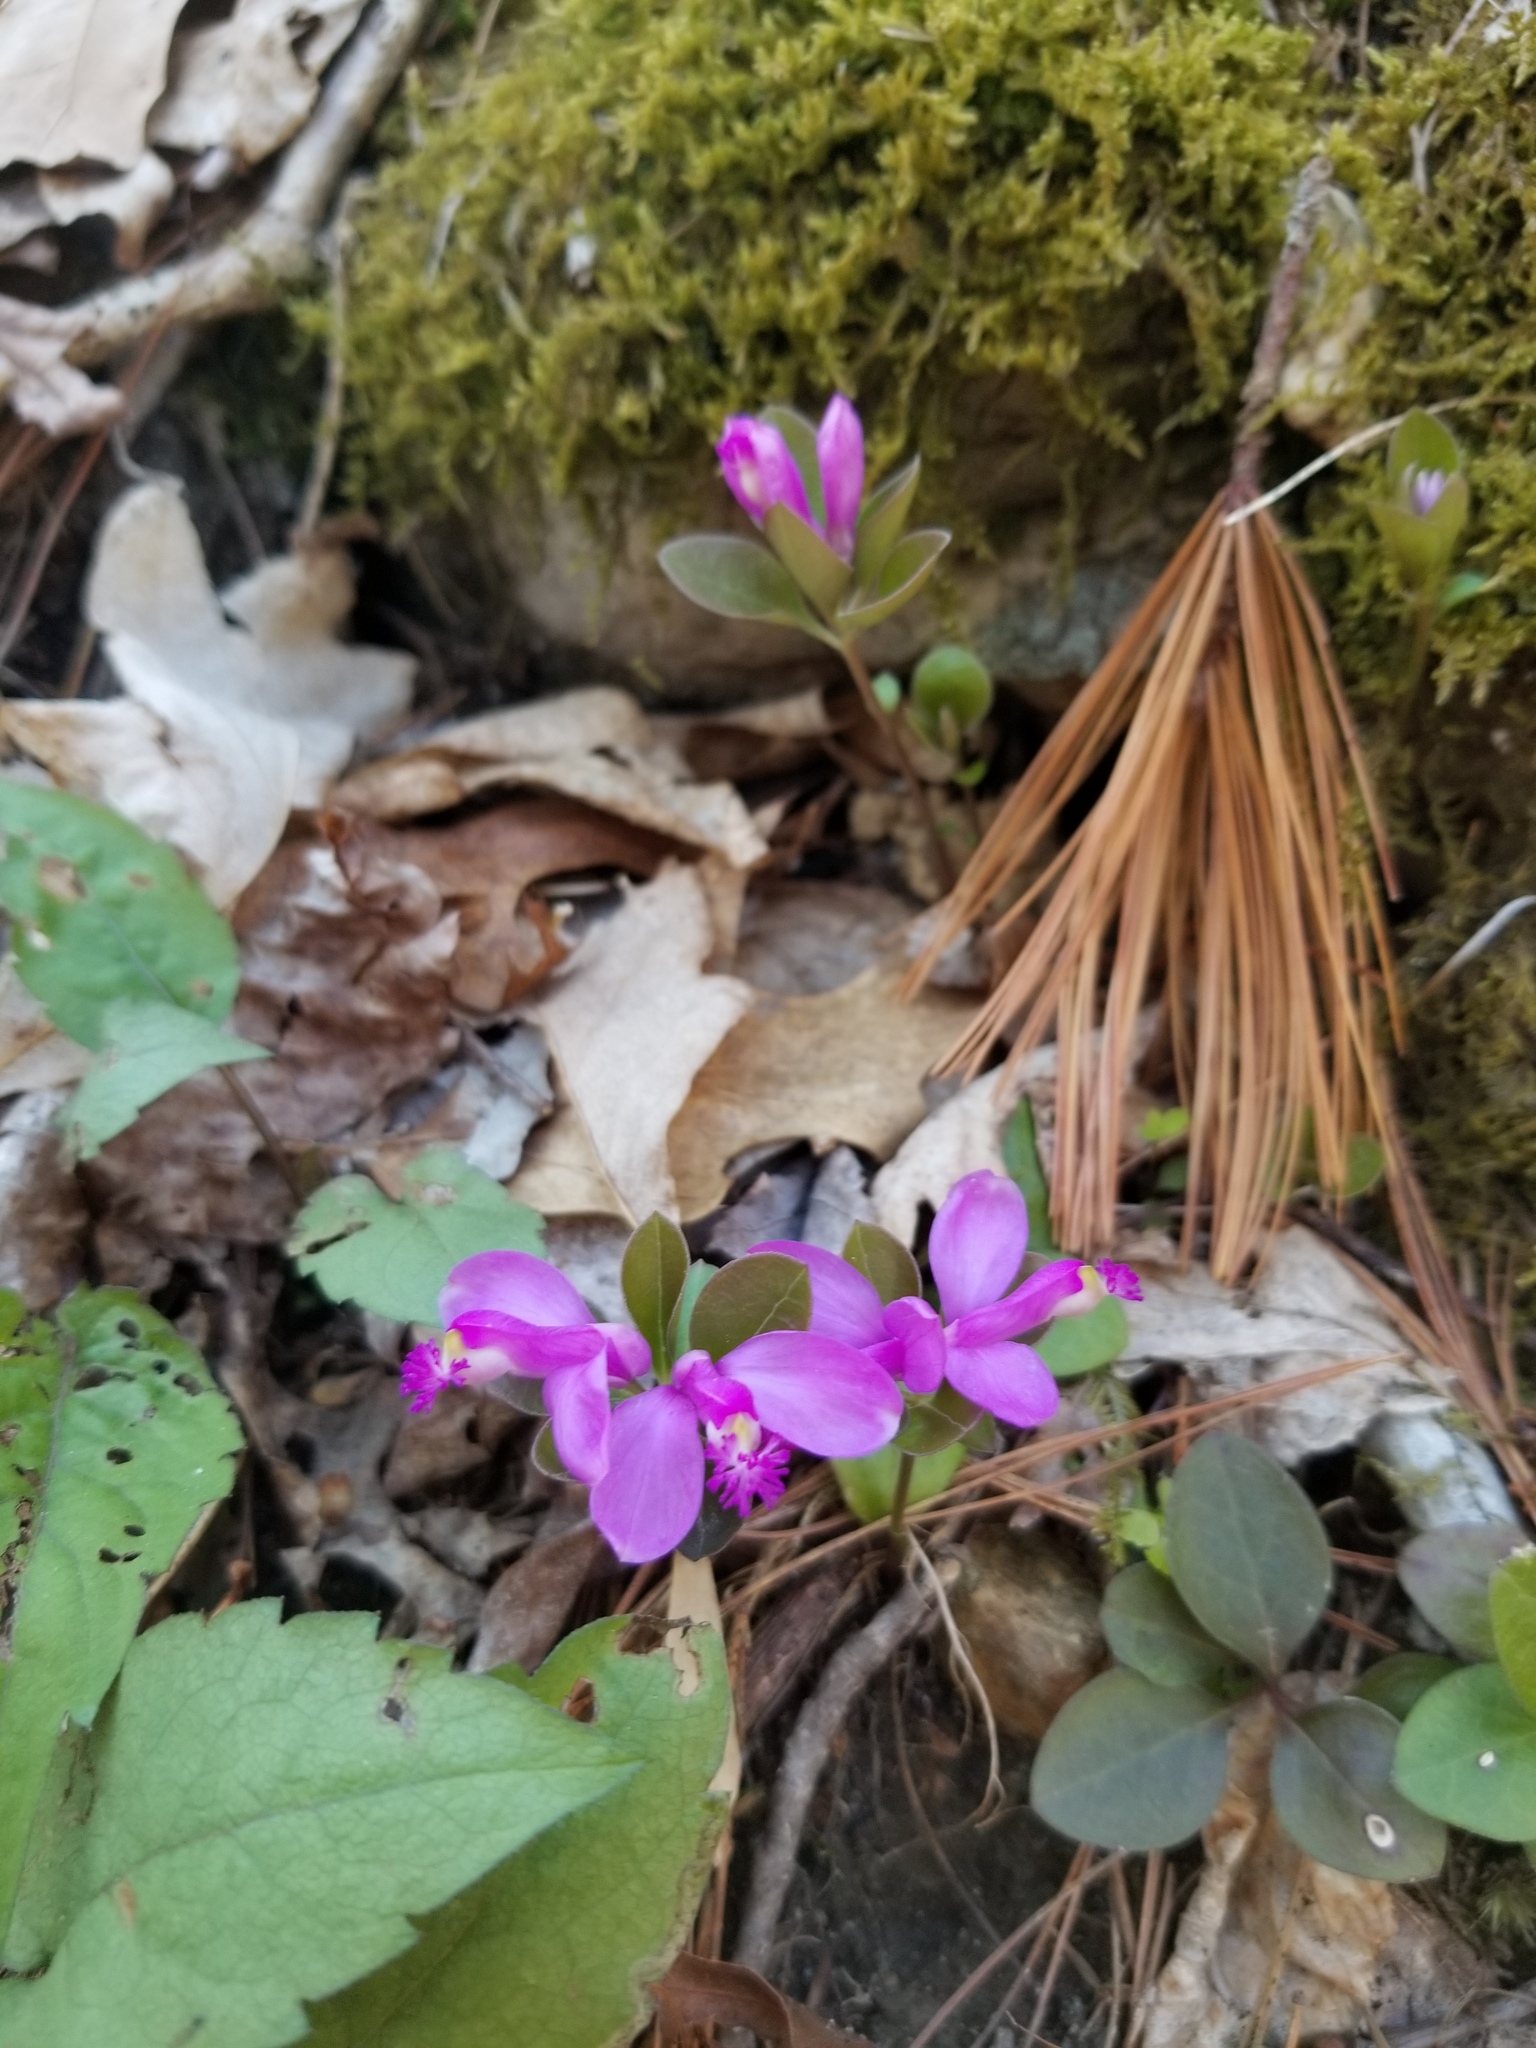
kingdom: Plantae
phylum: Tracheophyta
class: Magnoliopsida
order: Fabales
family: Polygalaceae
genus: Polygaloides
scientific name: Polygaloides paucifolia
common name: Bird-on-the-wing
